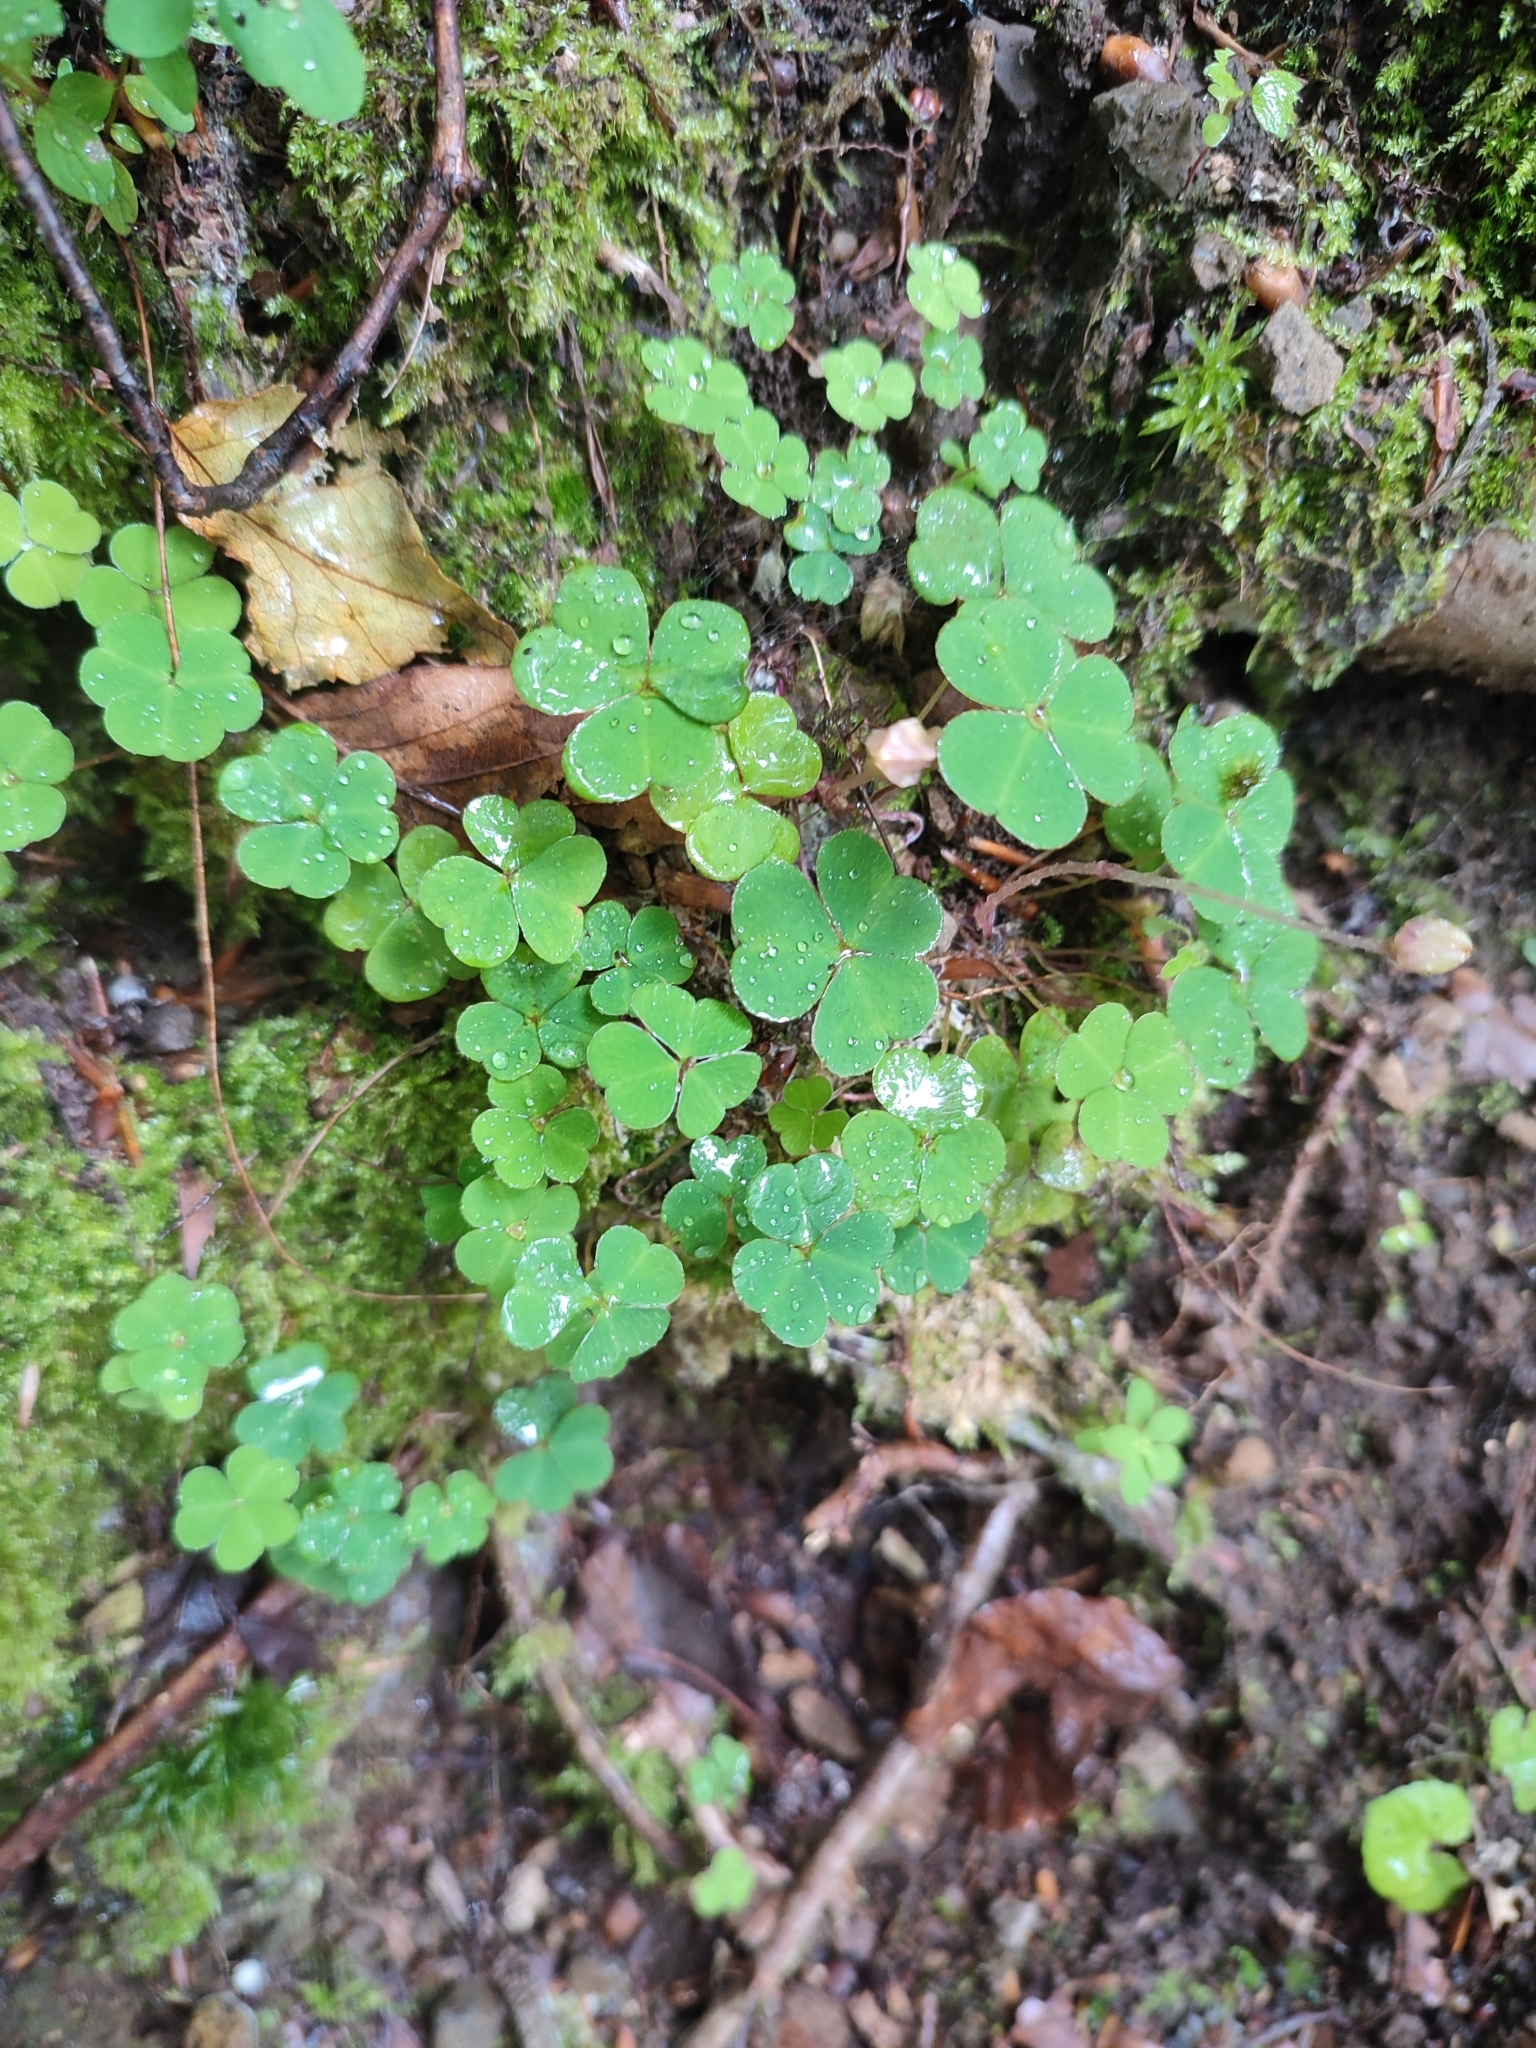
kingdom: Plantae
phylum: Tracheophyta
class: Magnoliopsida
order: Oxalidales
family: Oxalidaceae
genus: Oxalis
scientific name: Oxalis acetosella
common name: Wood-sorrel
